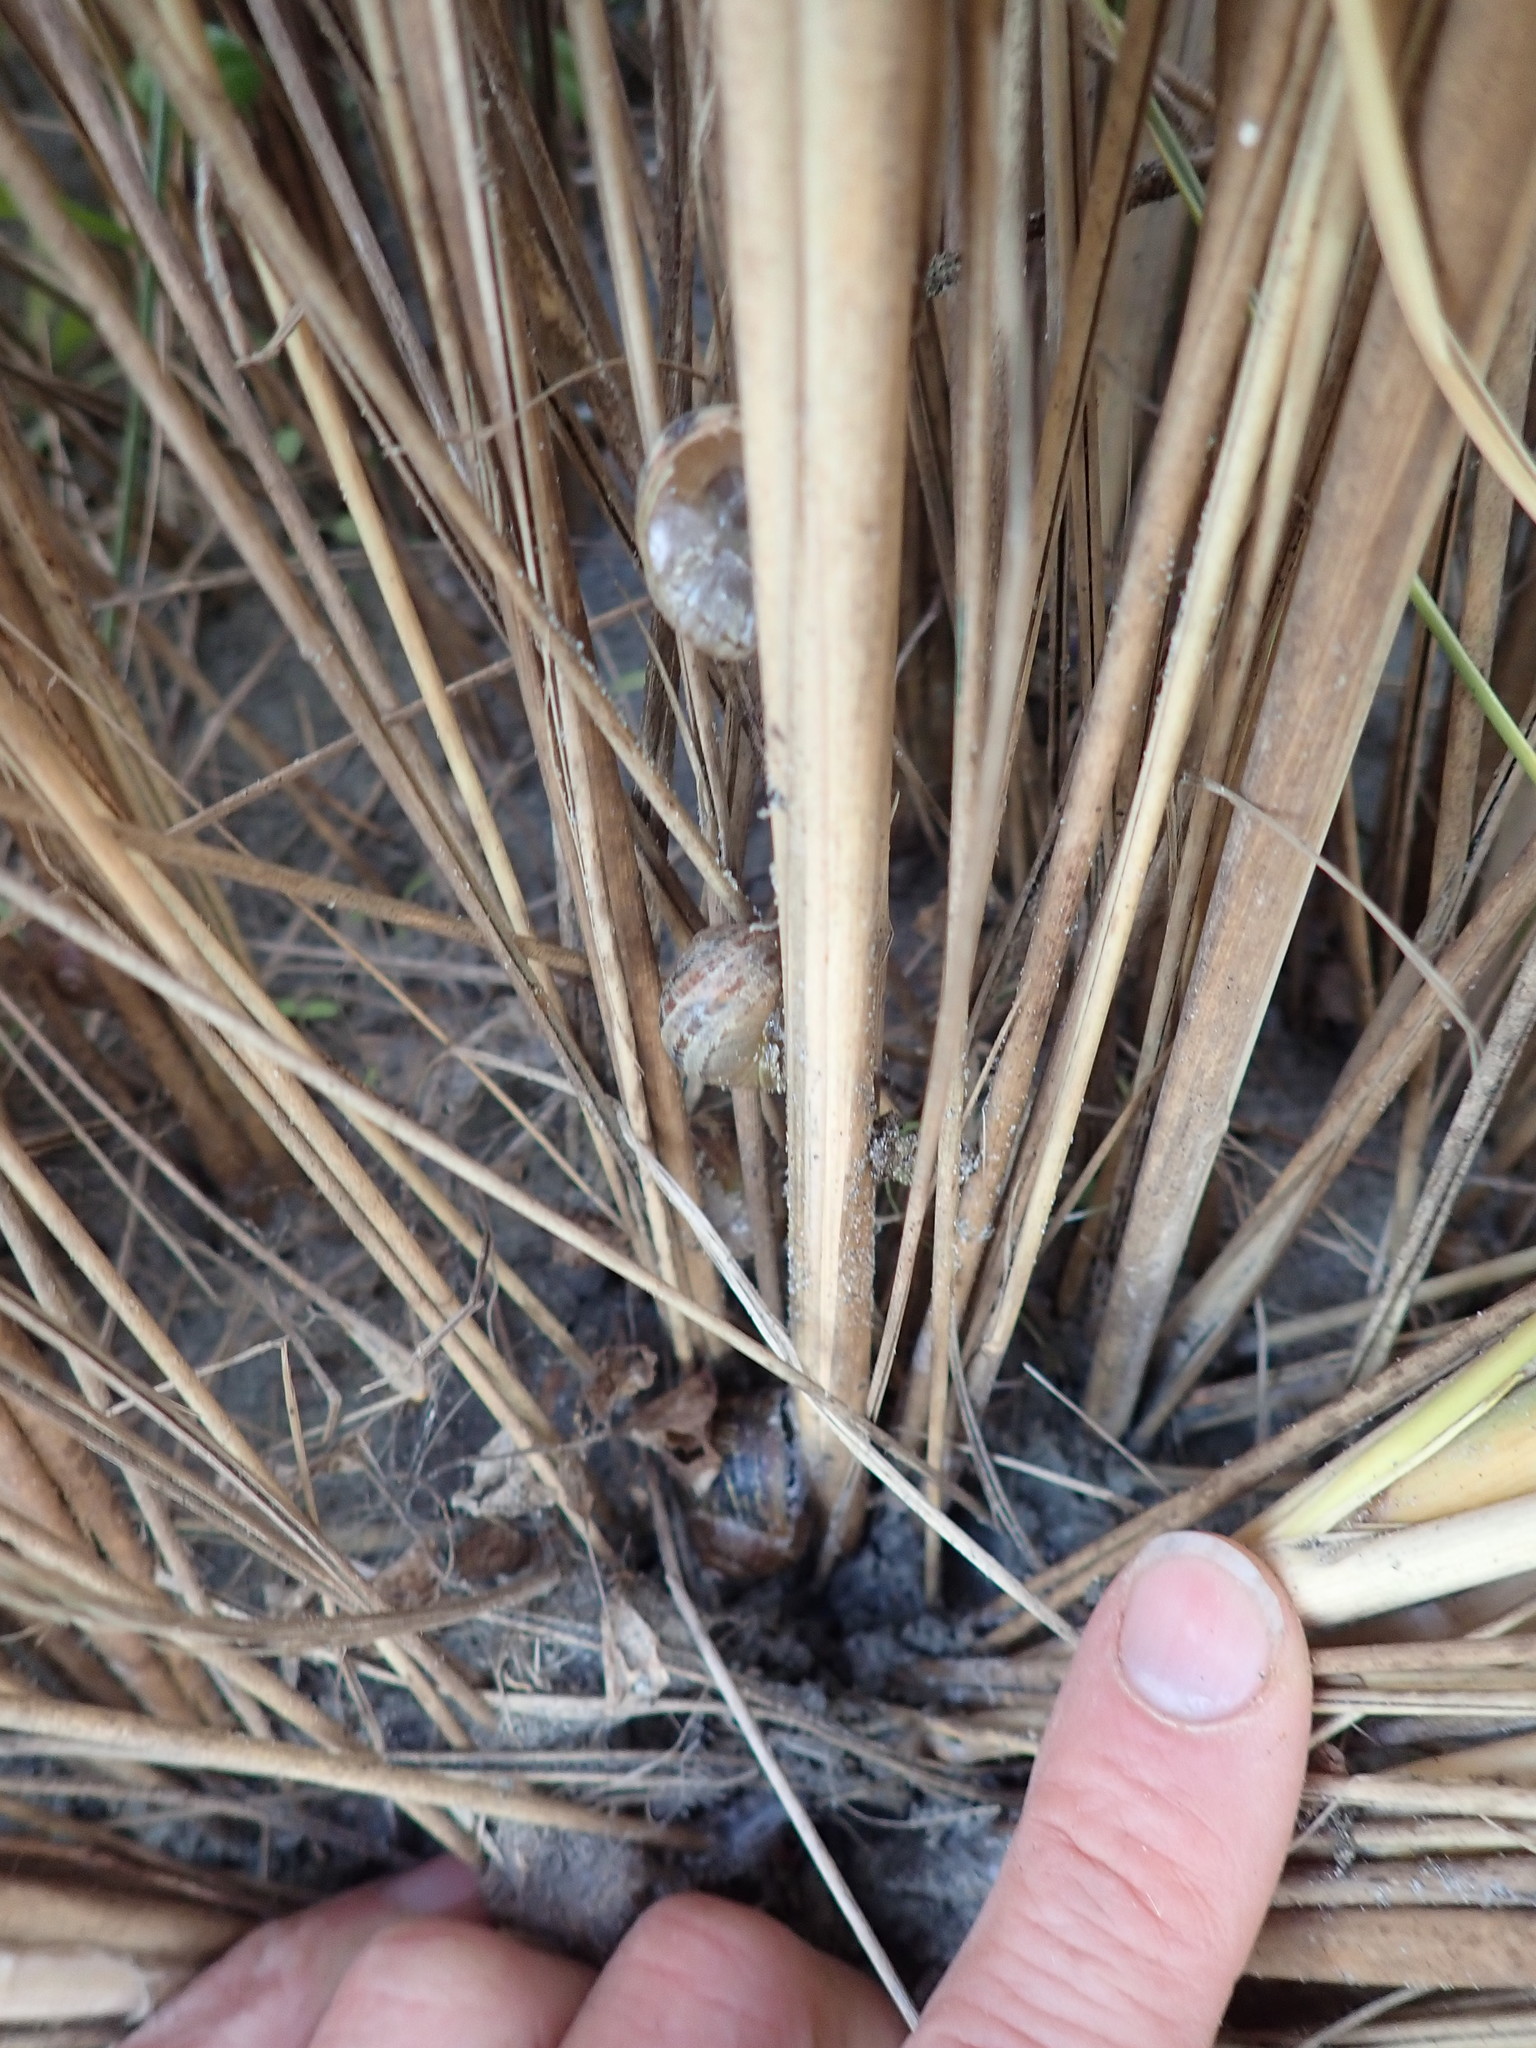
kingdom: Animalia
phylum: Mollusca
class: Gastropoda
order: Stylommatophora
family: Helicidae
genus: Cornu
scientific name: Cornu aspersum
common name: Brown garden snail
